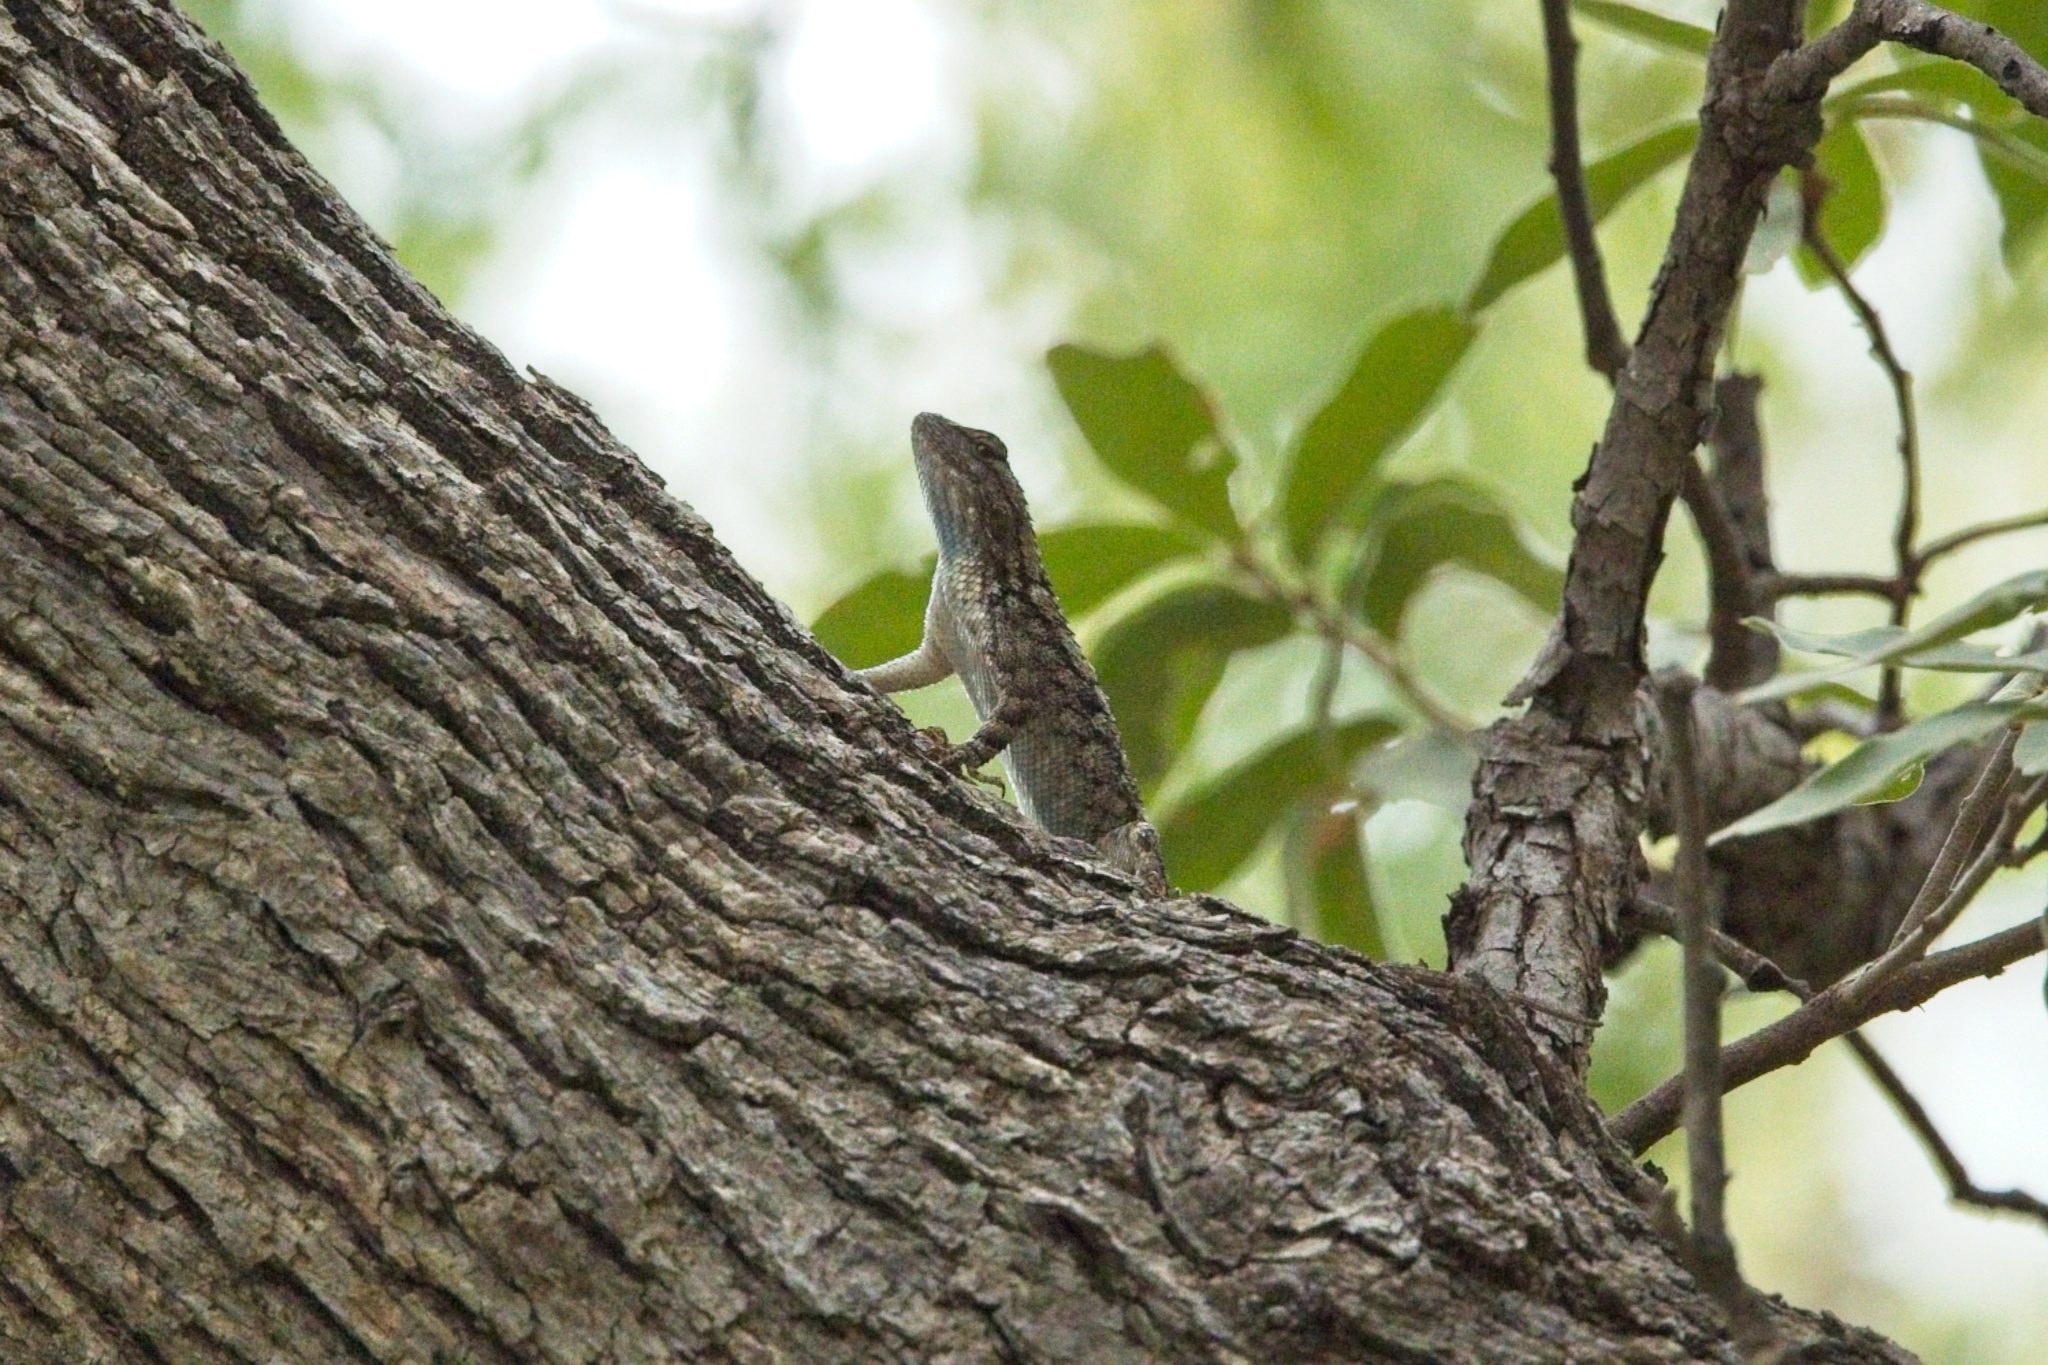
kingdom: Animalia
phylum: Chordata
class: Squamata
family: Phrynosomatidae
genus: Sceloporus
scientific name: Sceloporus clarkii
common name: Clark's spiny lizard
